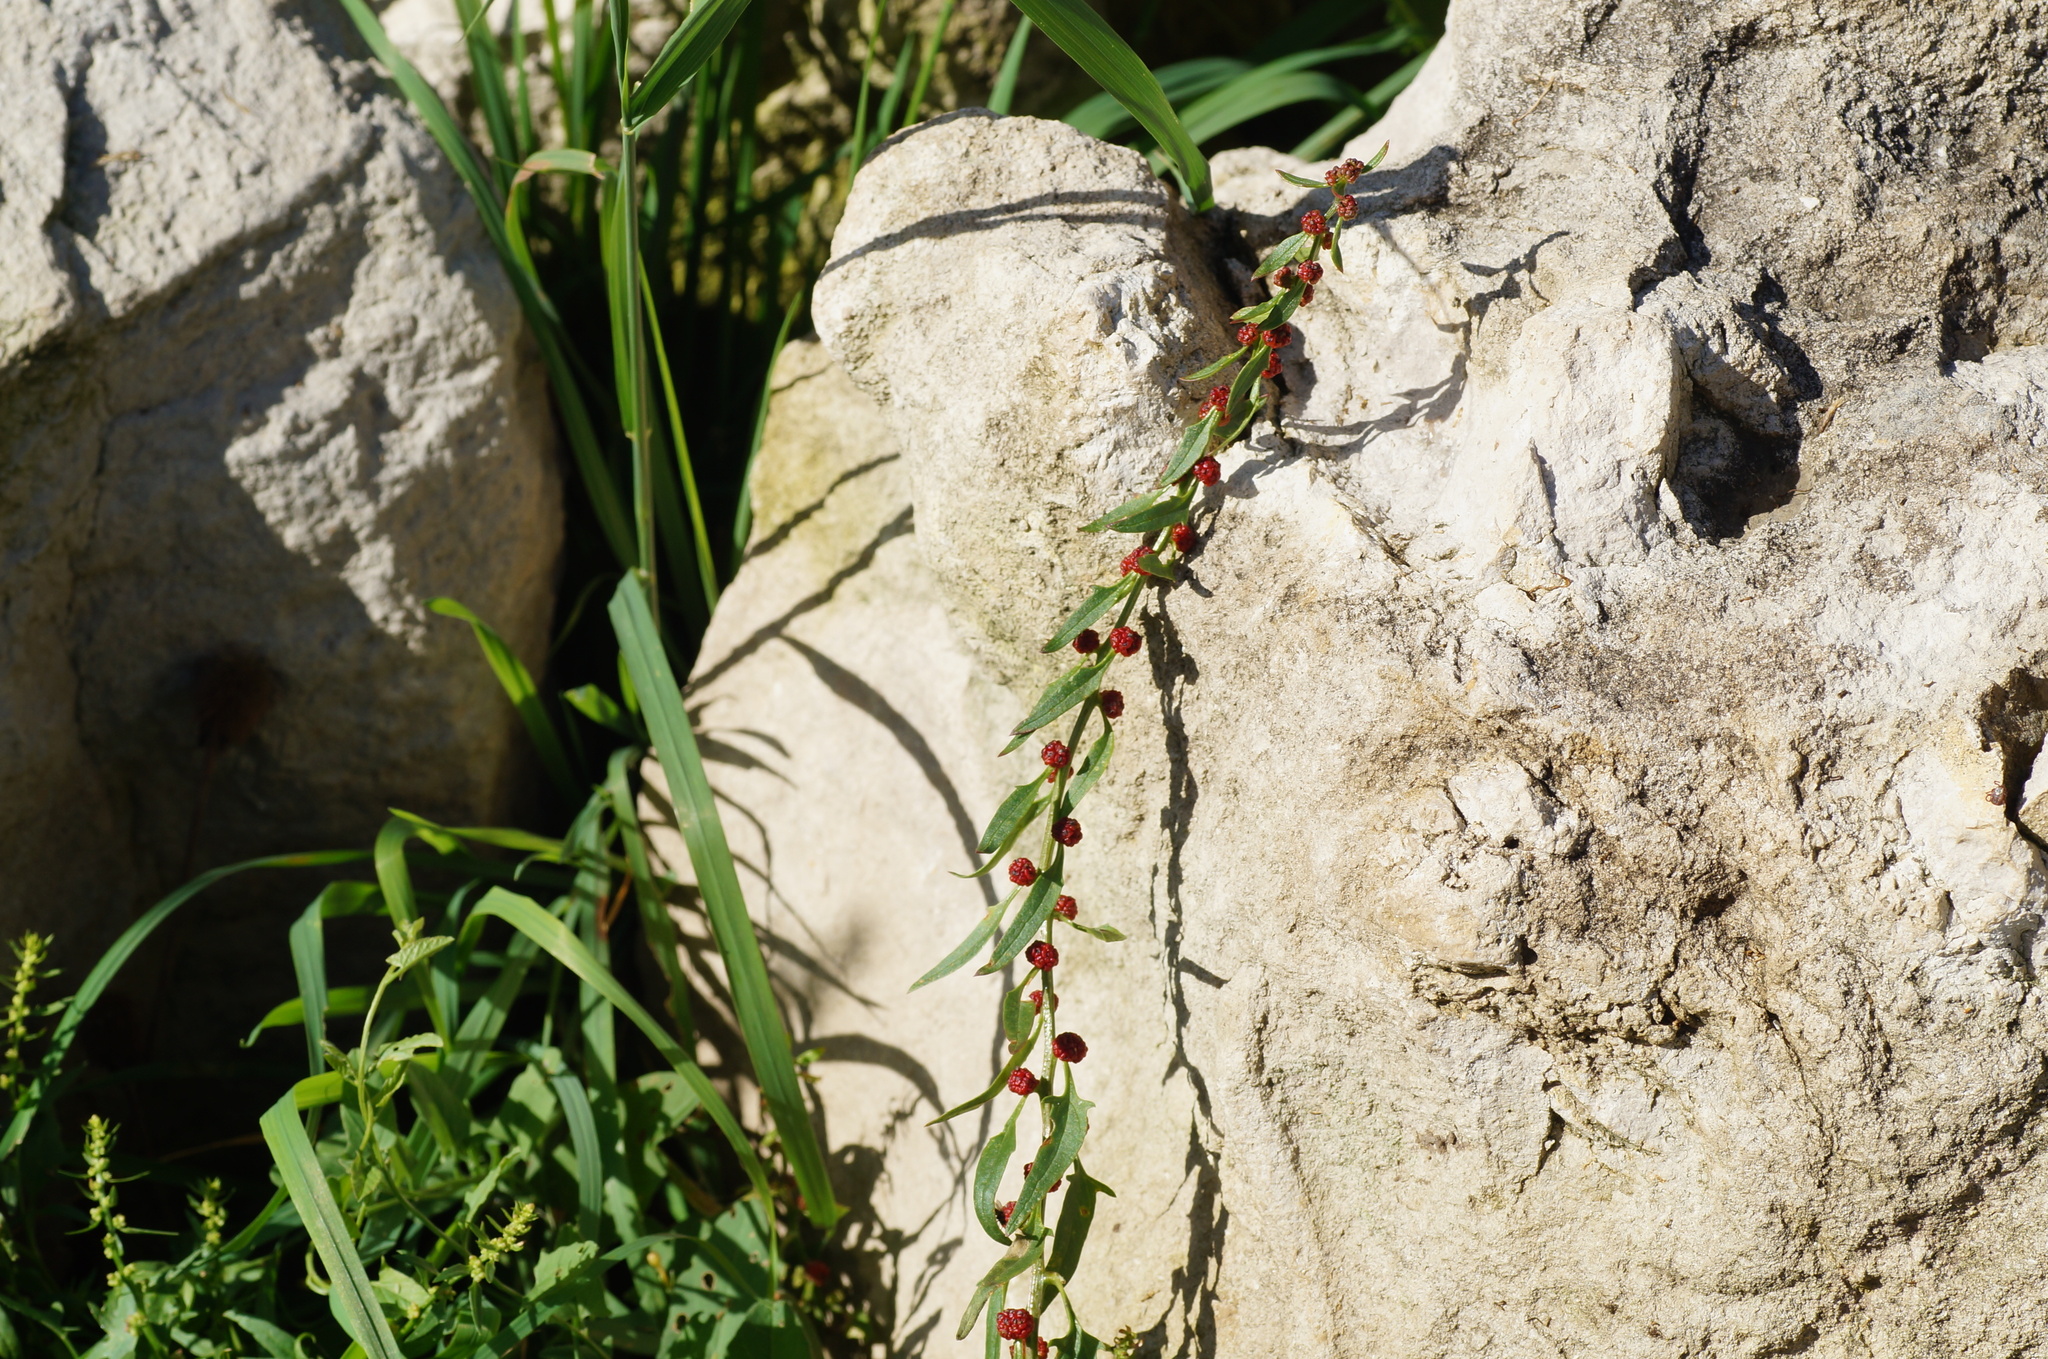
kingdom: Plantae
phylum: Tracheophyta
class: Magnoliopsida
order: Caryophyllales
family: Amaranthaceae
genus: Blitum
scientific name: Blitum virgatum
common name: Strawberry goosefoot
